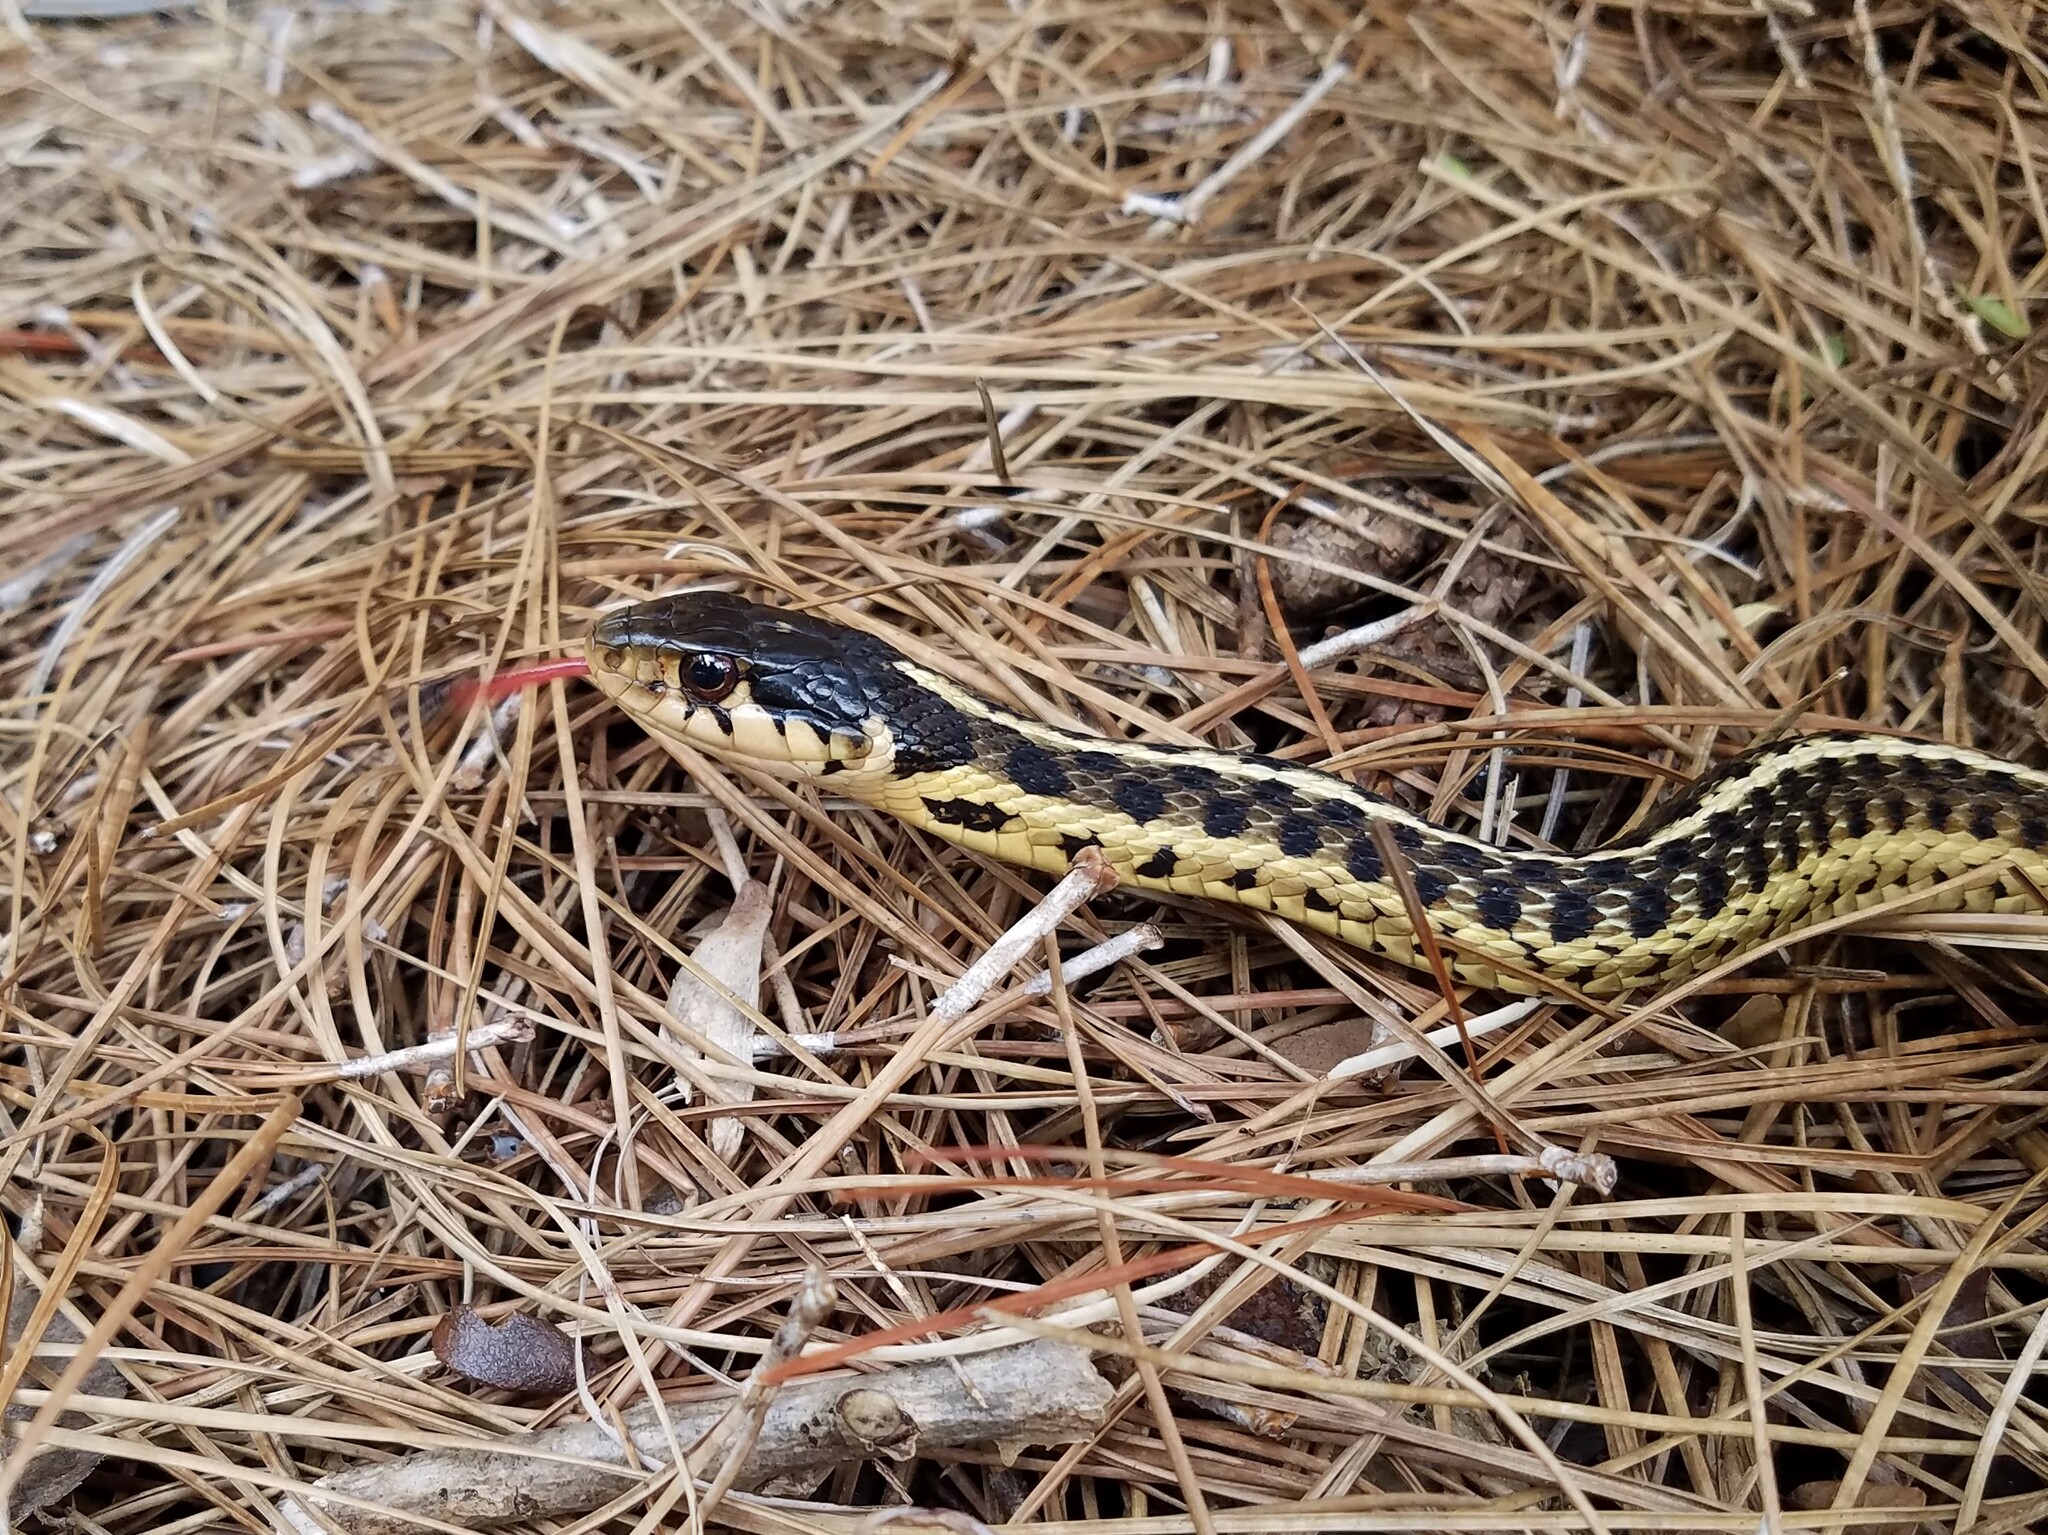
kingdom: Animalia
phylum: Chordata
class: Squamata
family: Colubridae
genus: Thamnophis
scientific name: Thamnophis sirtalis
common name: Common garter snake
